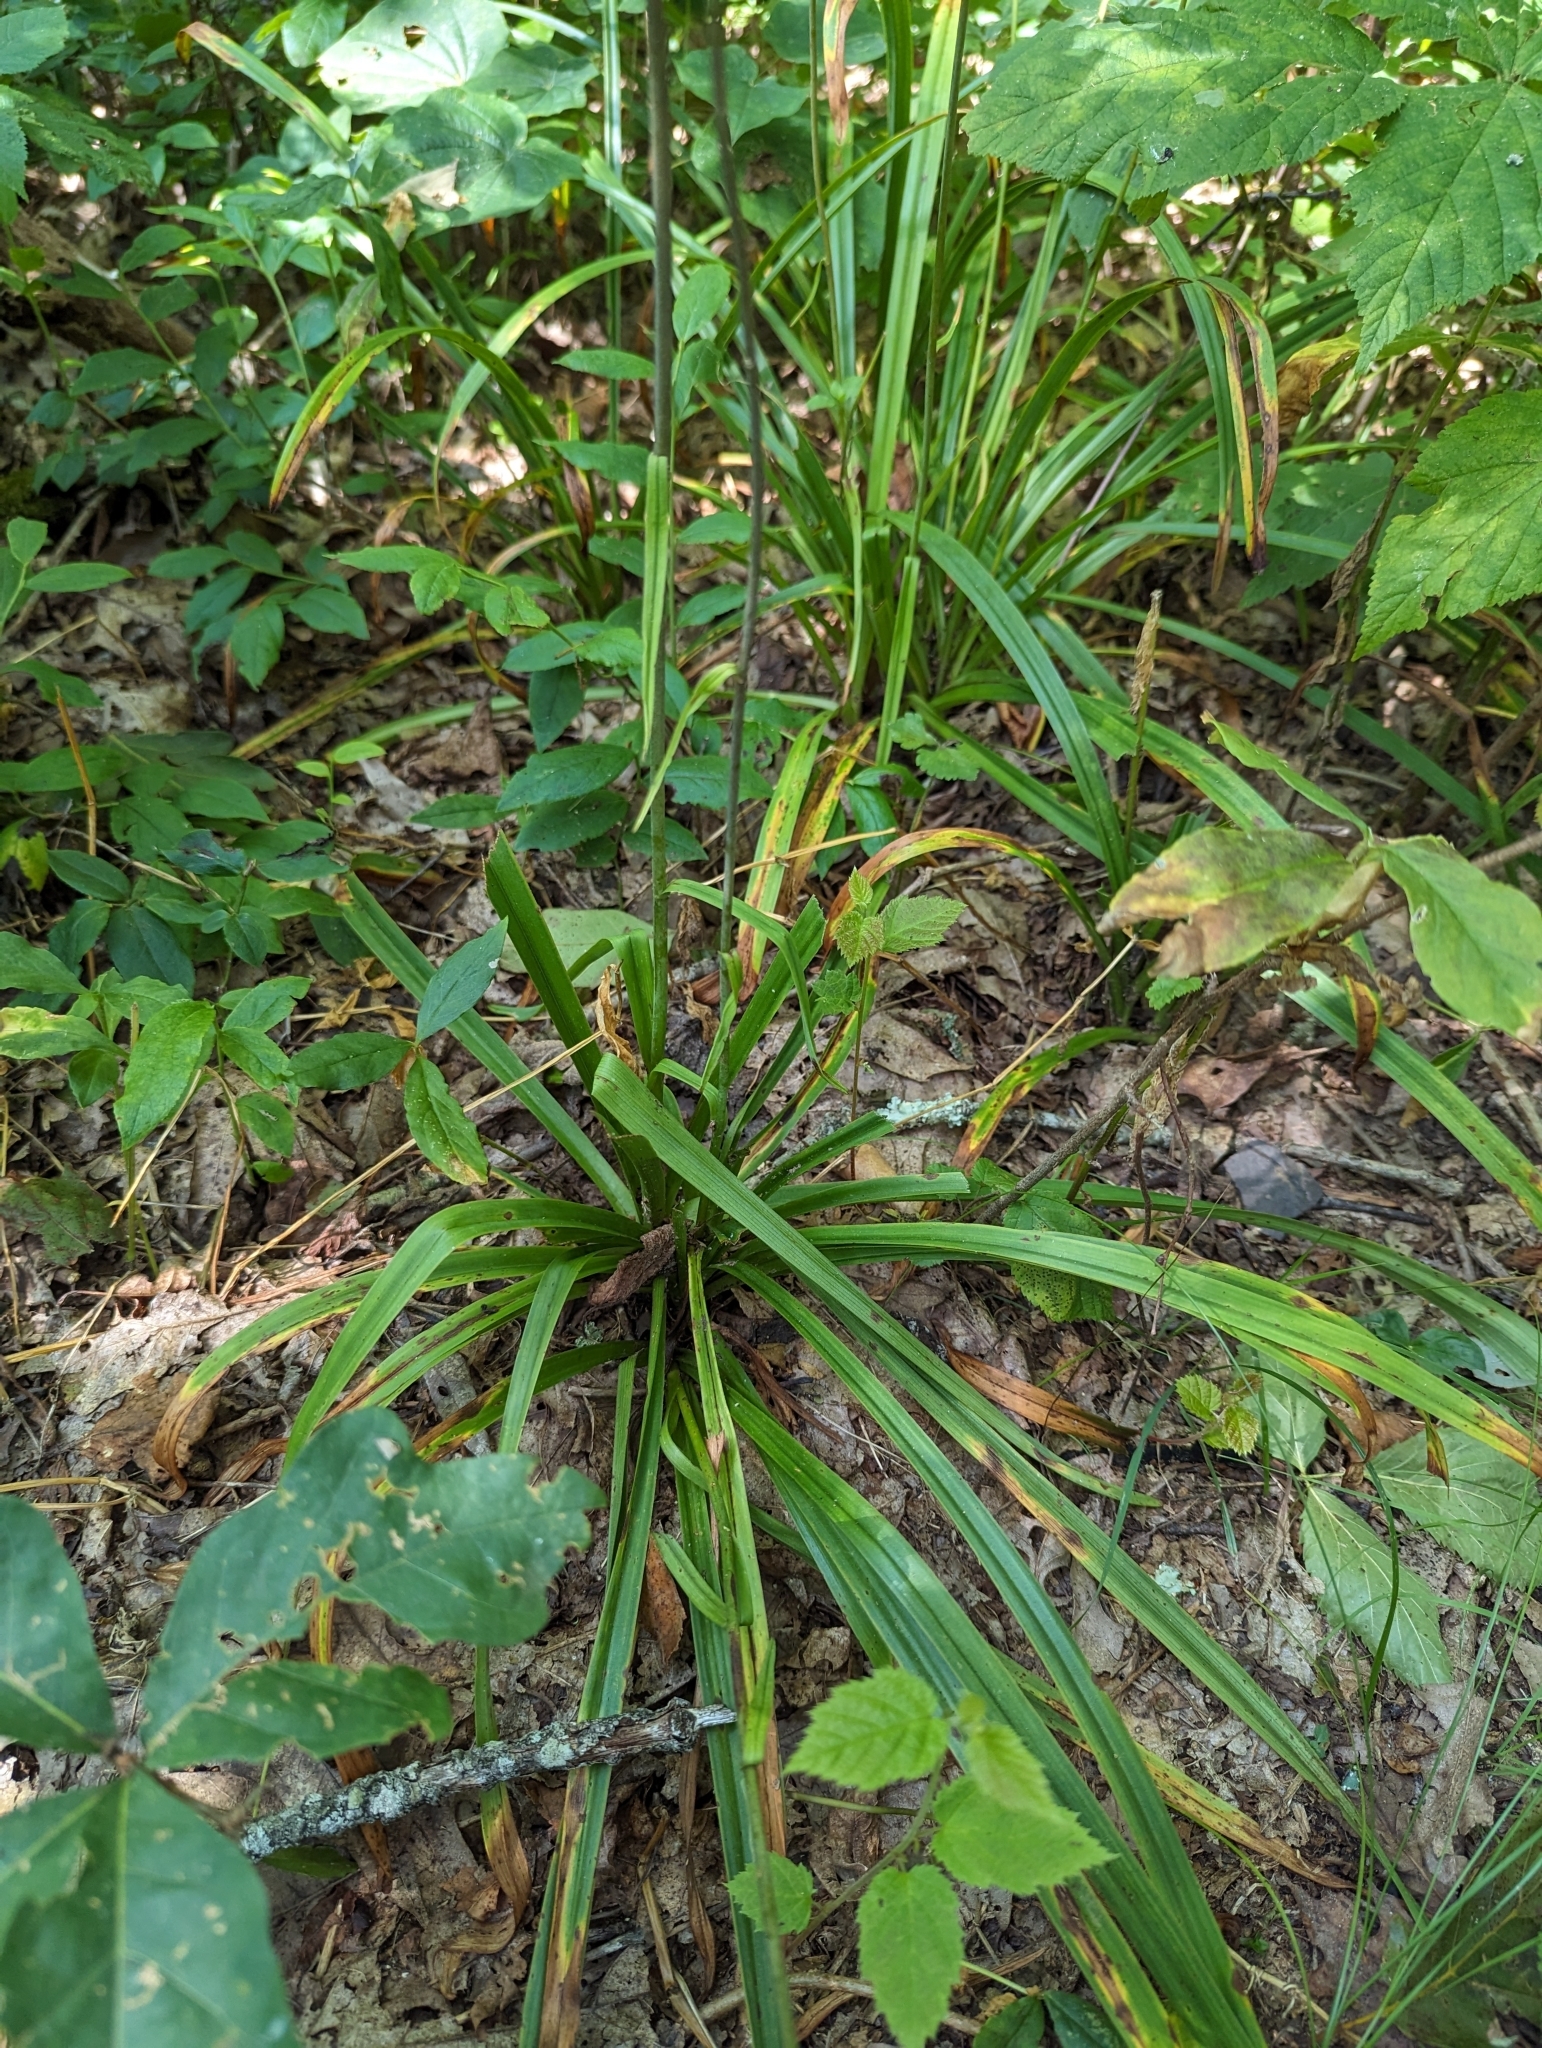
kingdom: Plantae
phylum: Tracheophyta
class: Liliopsida
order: Liliales
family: Melanthiaceae
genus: Amianthium
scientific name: Amianthium muscitoxicum
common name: Fly-poison
